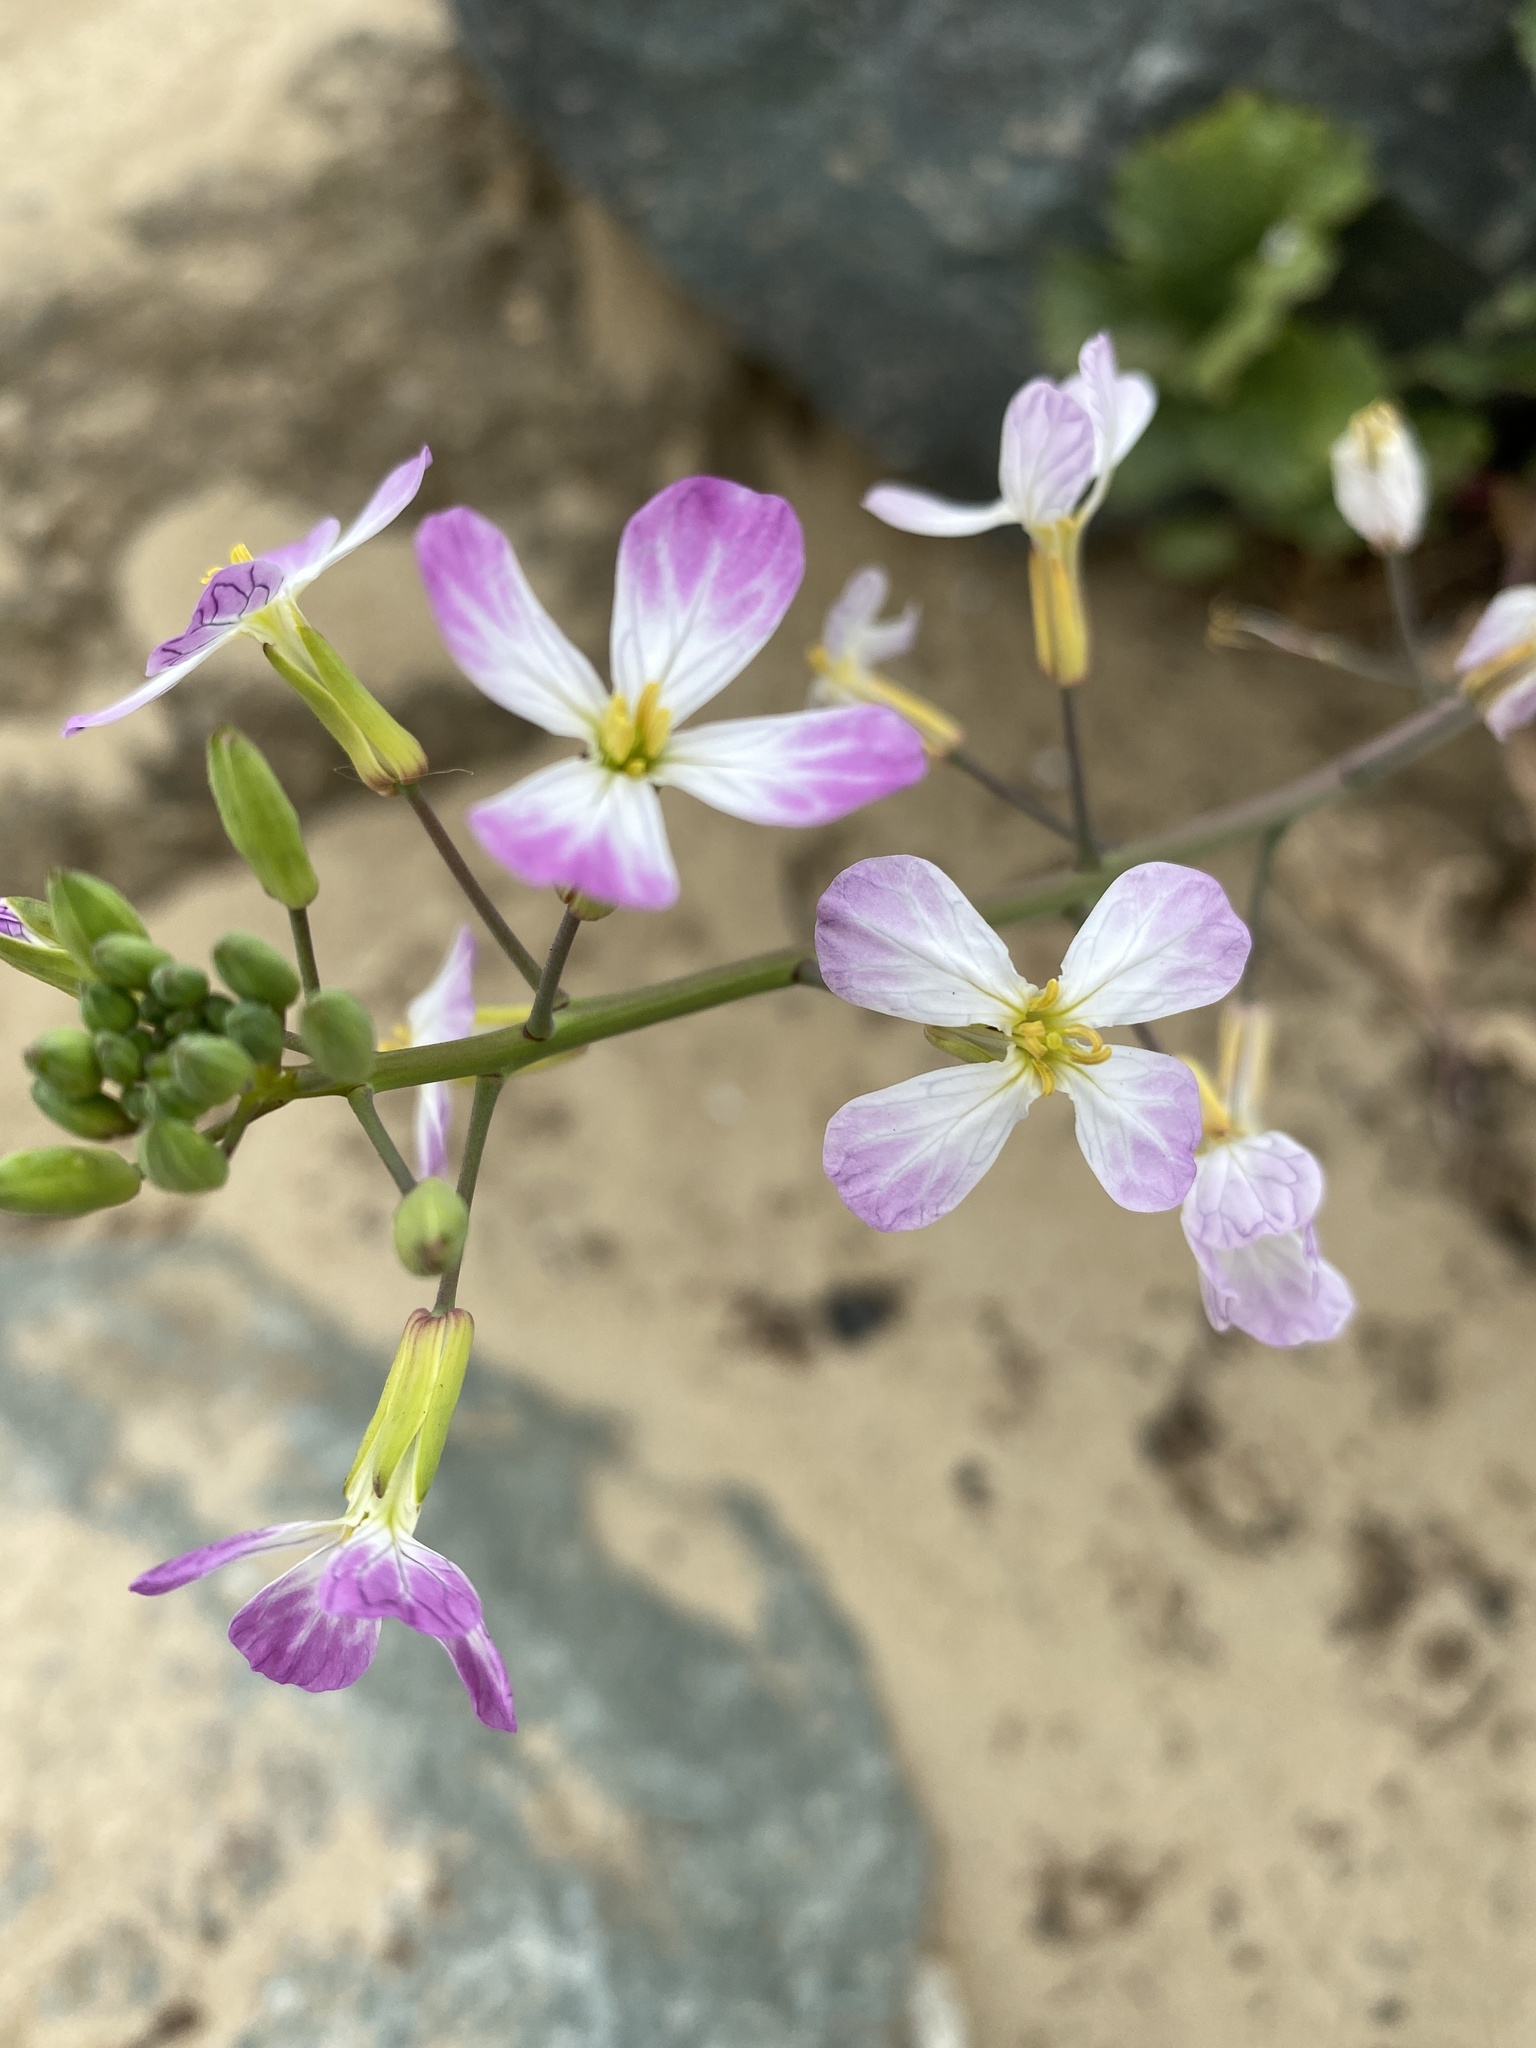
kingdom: Plantae
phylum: Tracheophyta
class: Magnoliopsida
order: Brassicales
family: Brassicaceae
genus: Raphanus
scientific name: Raphanus sativus
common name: Cultivated radish
